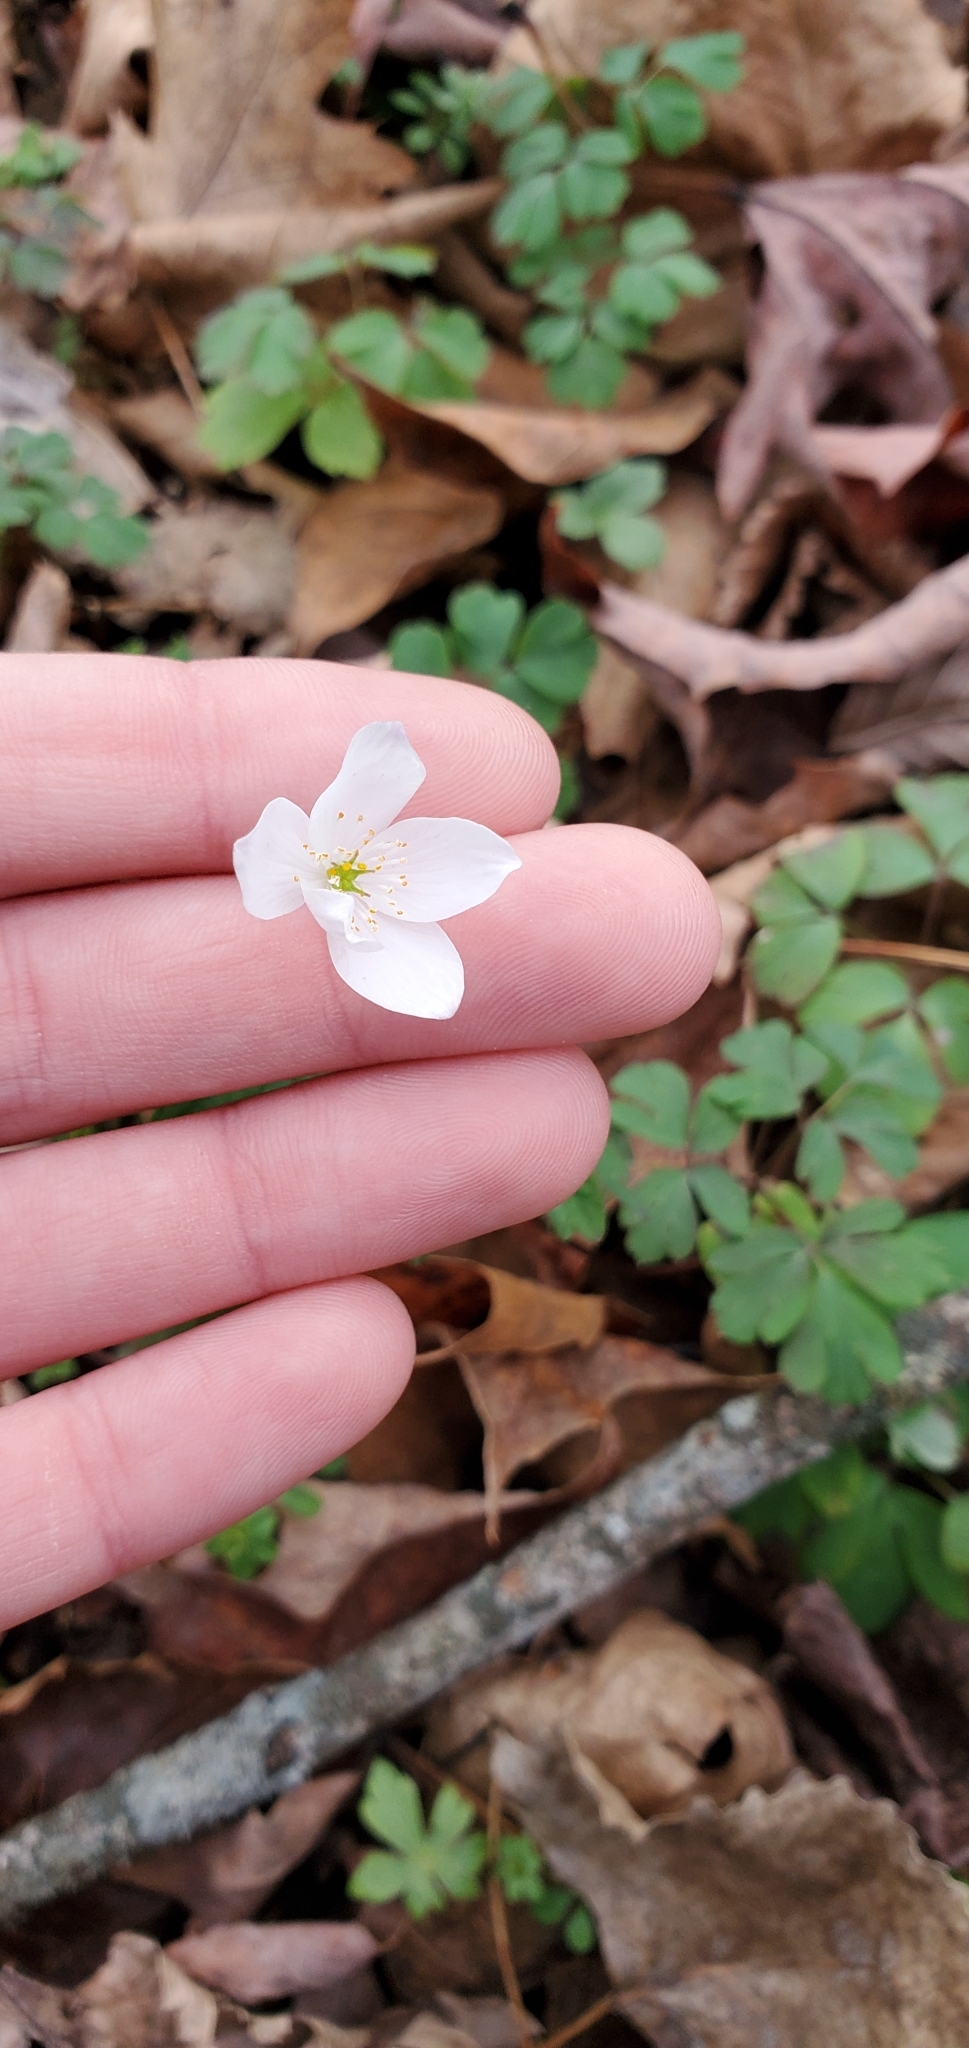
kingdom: Plantae
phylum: Tracheophyta
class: Magnoliopsida
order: Ranunculales
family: Ranunculaceae
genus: Enemion
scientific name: Enemion biternatum
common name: Eastern false rue-anemone
